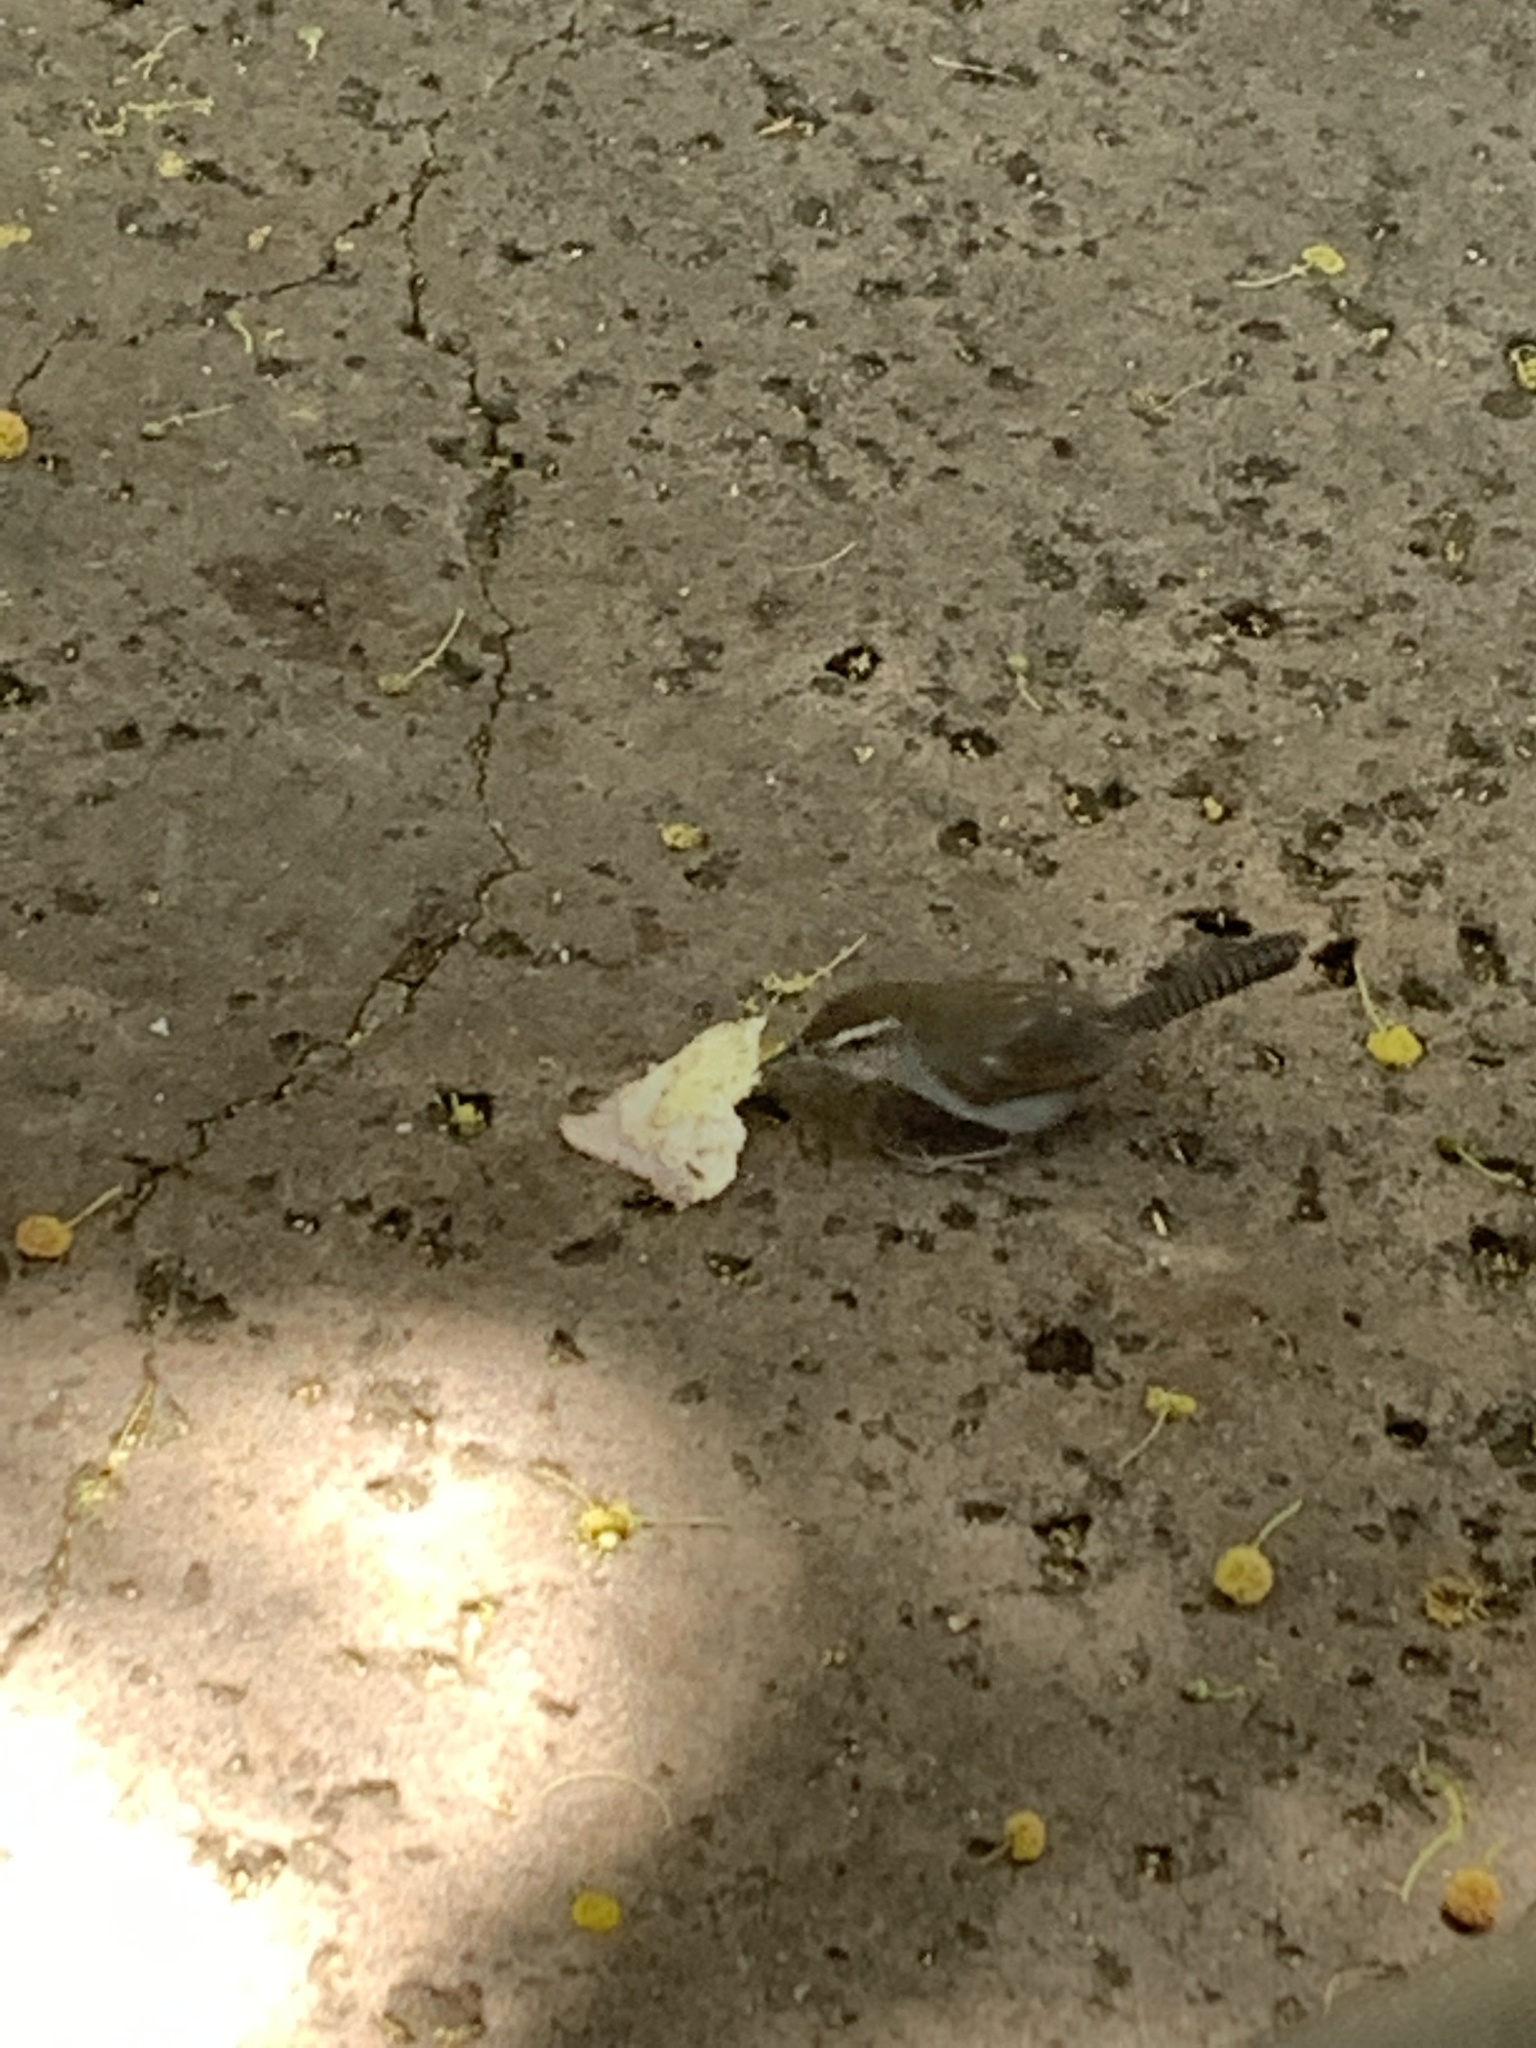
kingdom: Animalia
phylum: Chordata
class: Aves
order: Passeriformes
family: Troglodytidae
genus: Thryomanes
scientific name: Thryomanes bewickii
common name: Bewick's wren
